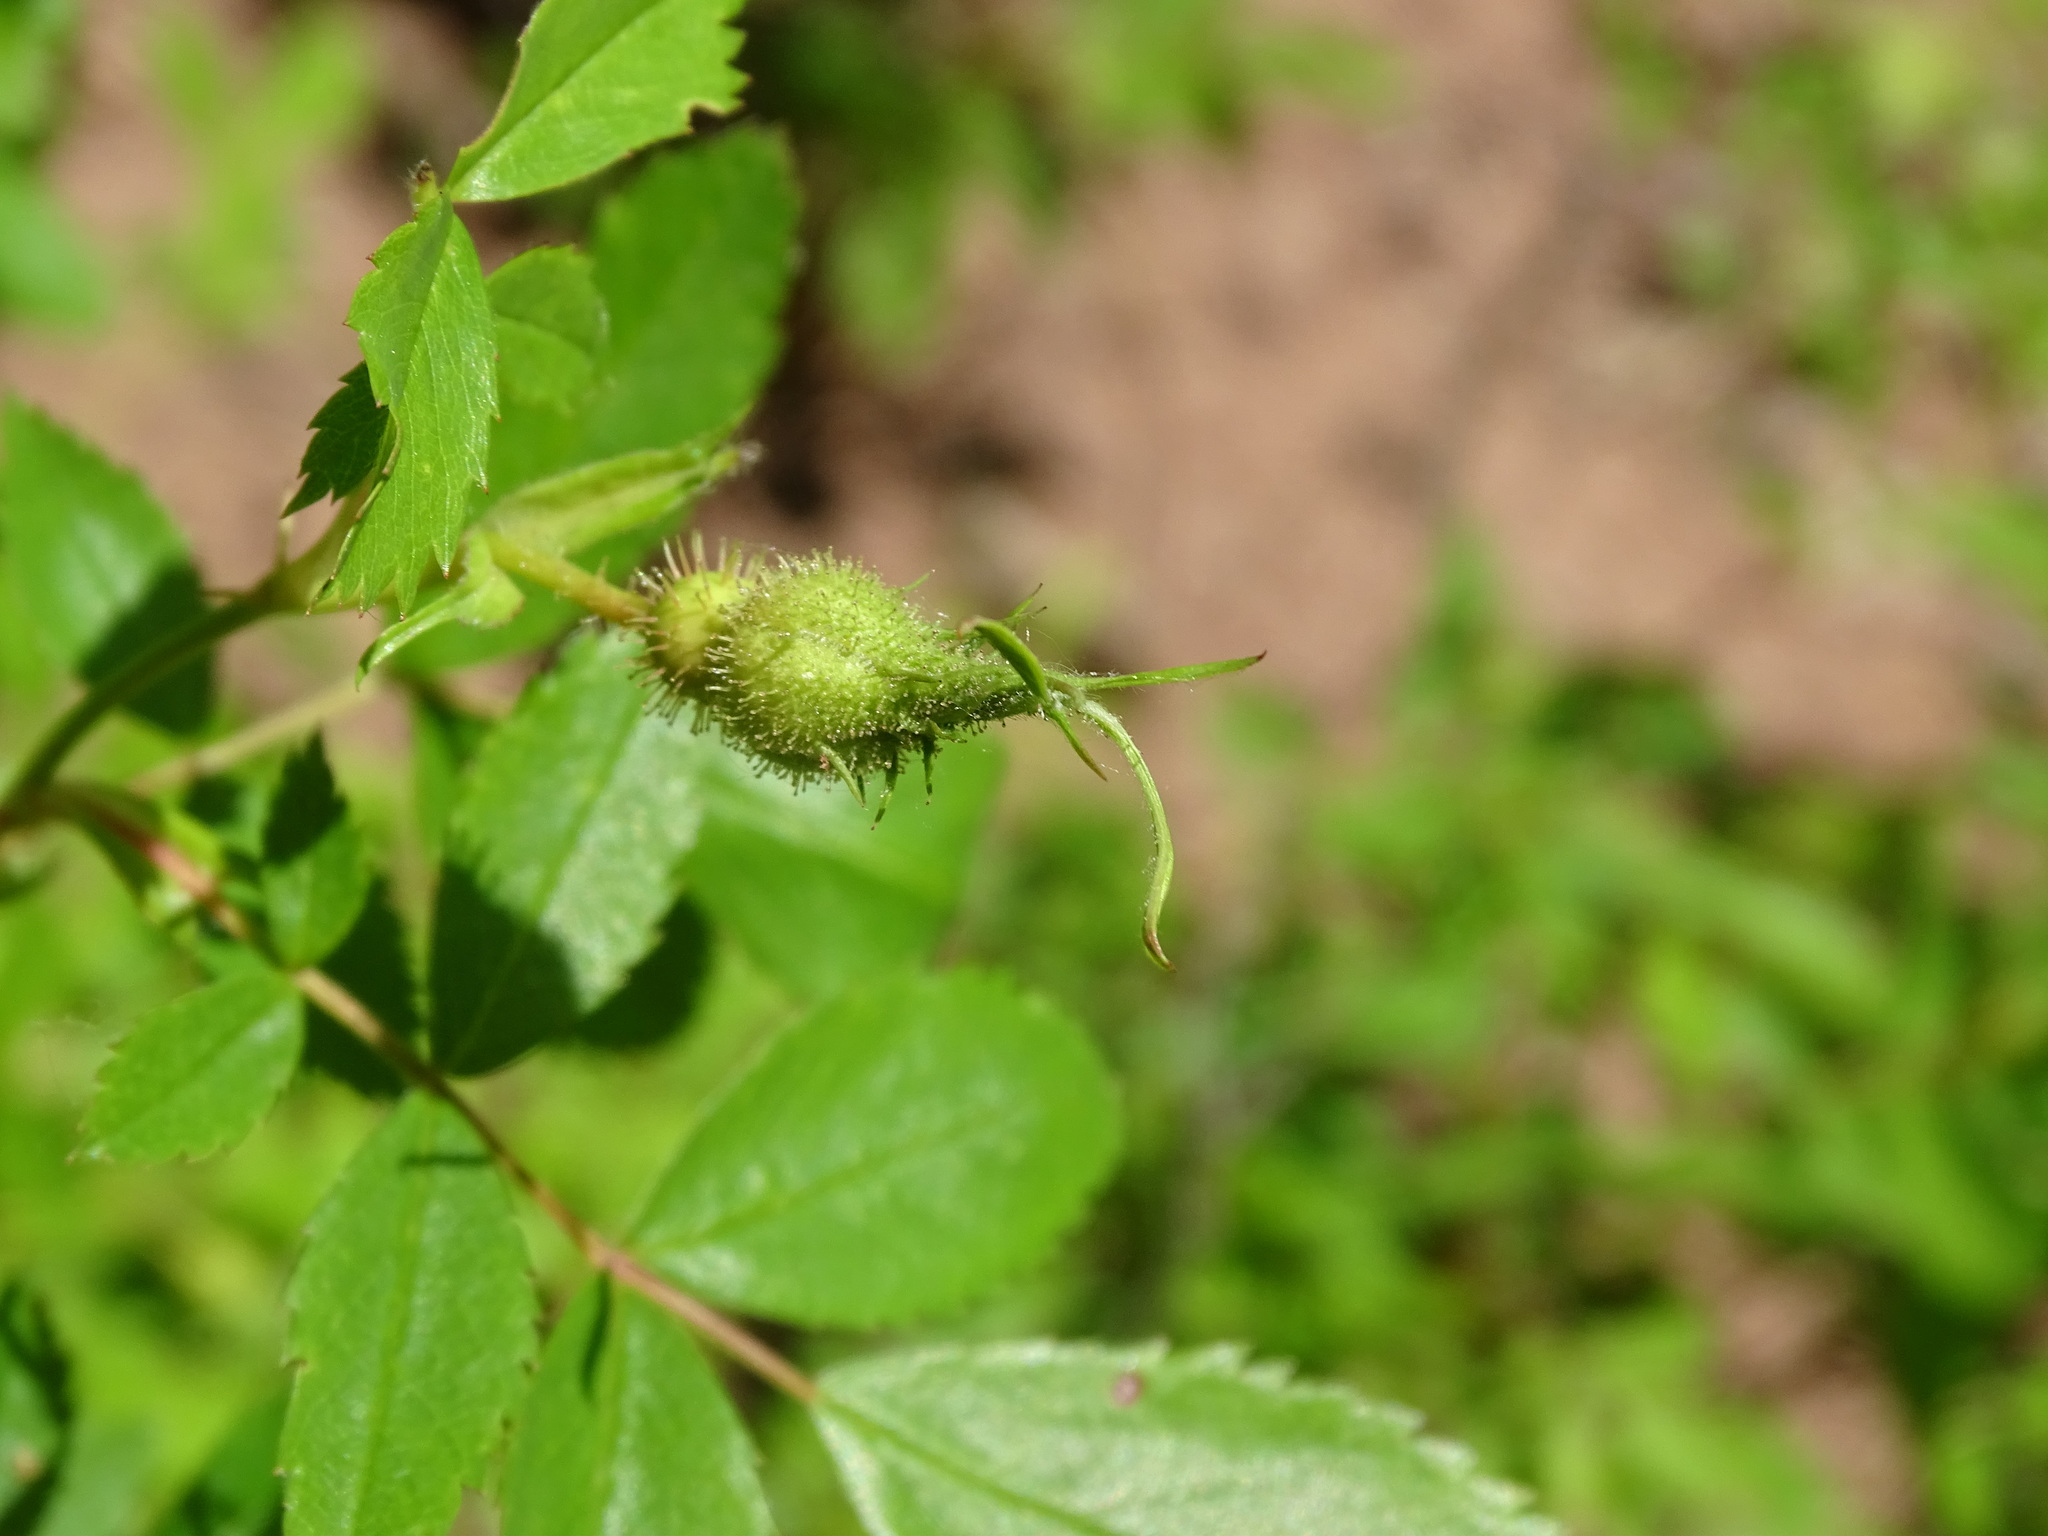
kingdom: Plantae
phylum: Tracheophyta
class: Magnoliopsida
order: Rosales
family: Rosaceae
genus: Rosa
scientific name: Rosa carolina
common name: Pasture rose
